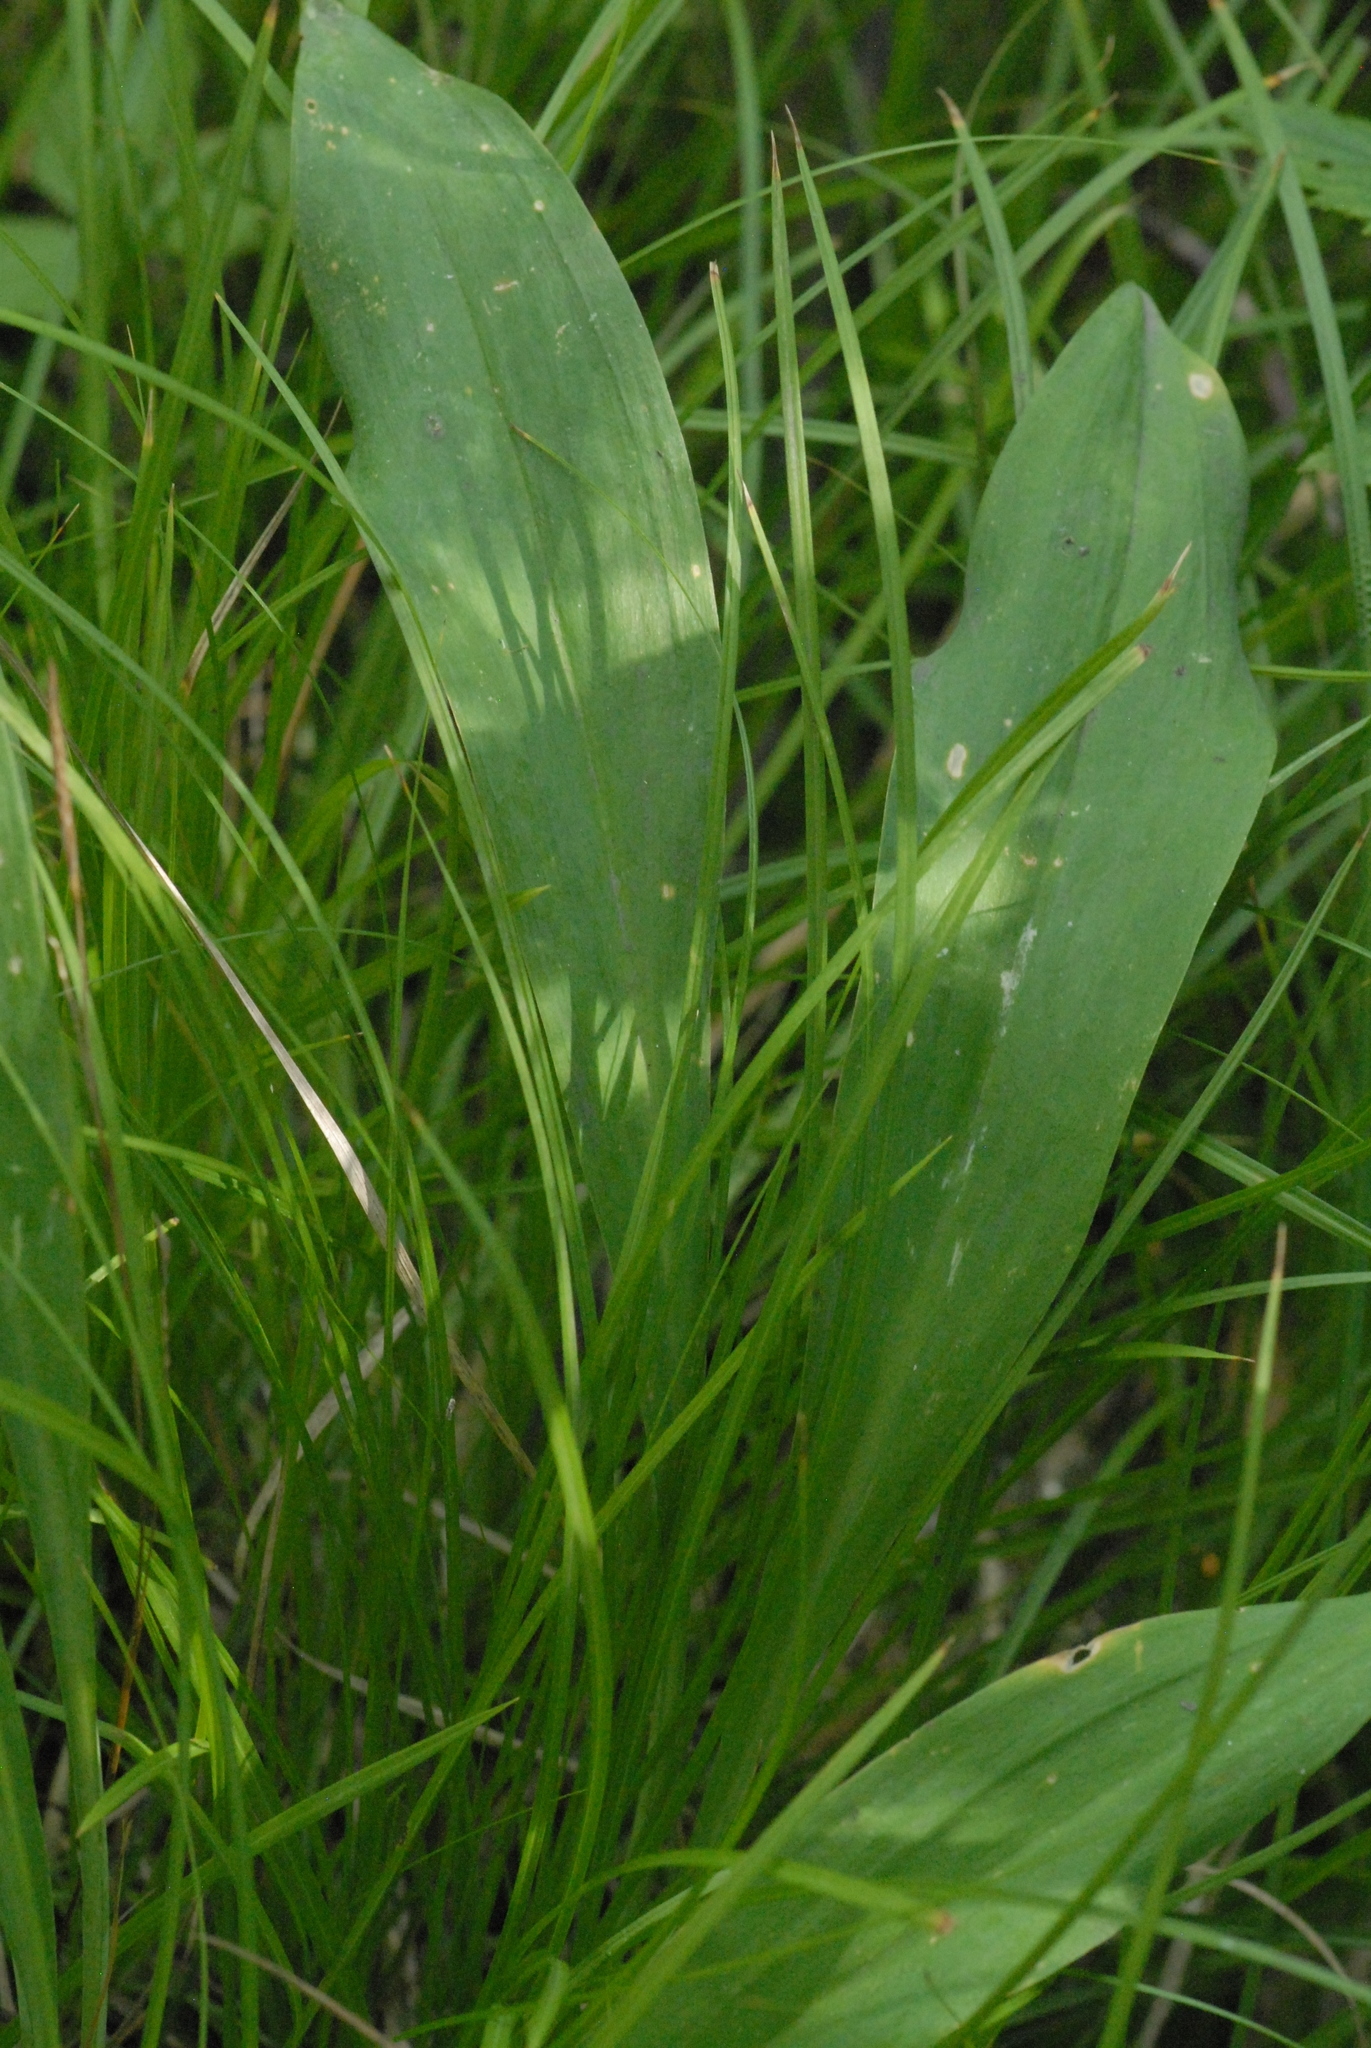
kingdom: Plantae
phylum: Tracheophyta
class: Liliopsida
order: Asparagales
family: Orchidaceae
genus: Platanthera
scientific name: Platanthera bifolia
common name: Lesser butterfly-orchid
